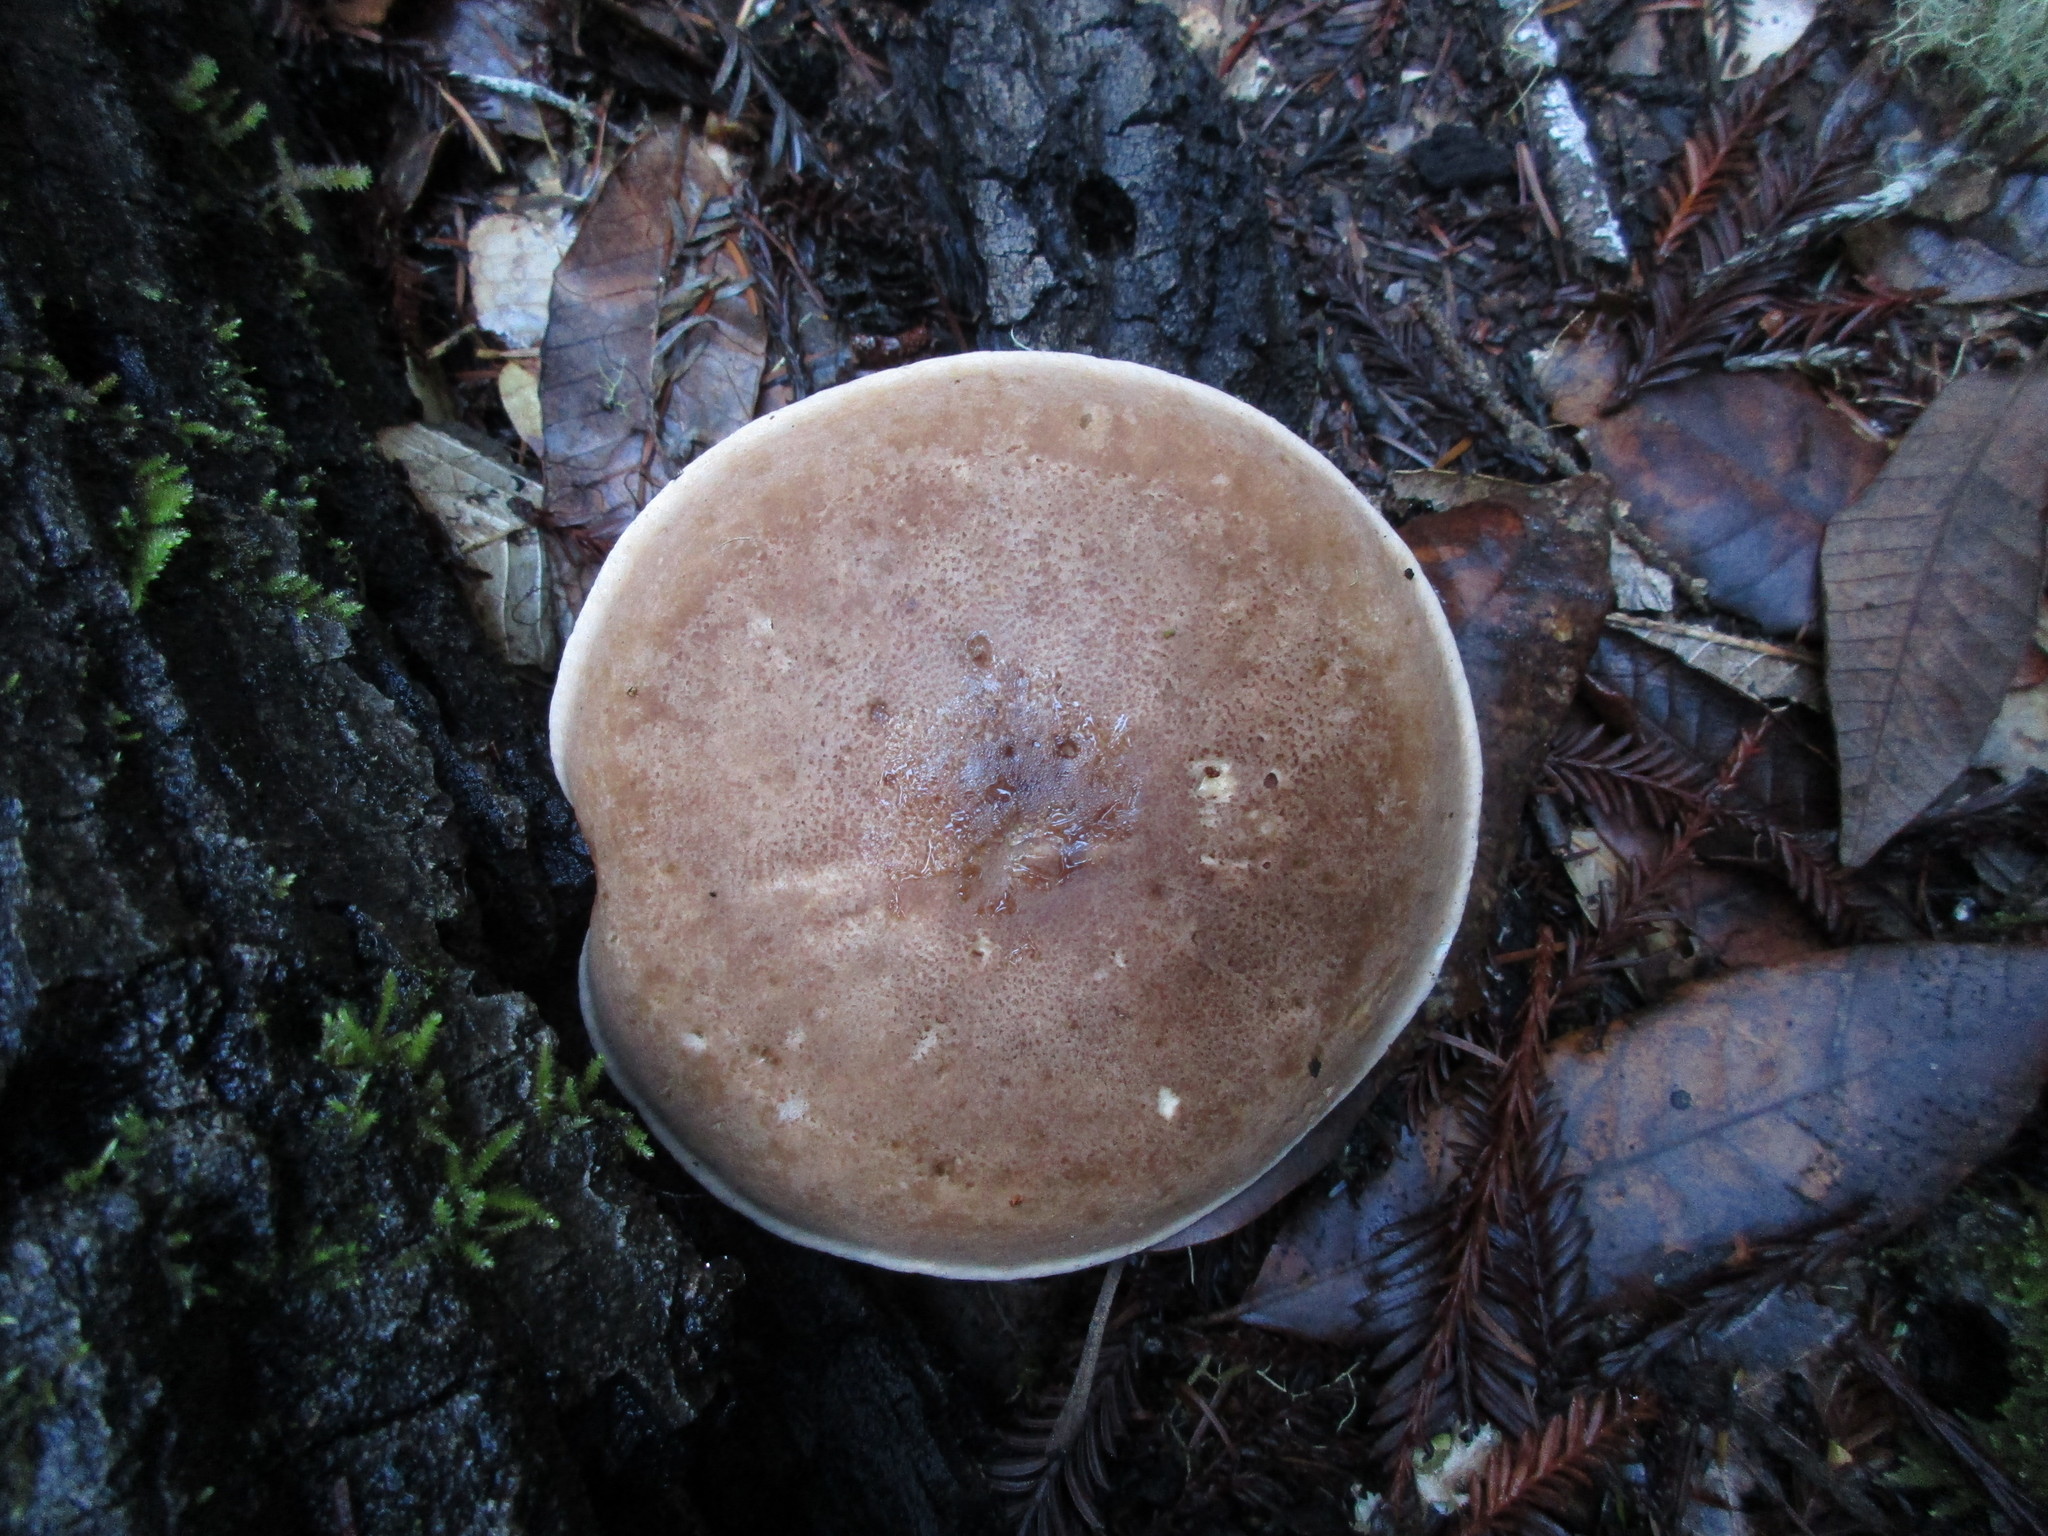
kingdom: Fungi
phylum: Basidiomycota
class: Agaricomycetes
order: Agaricales
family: Tricholomataceae
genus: Leucopaxillus
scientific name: Leucopaxillus gentianeus
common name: Bitter funnel
